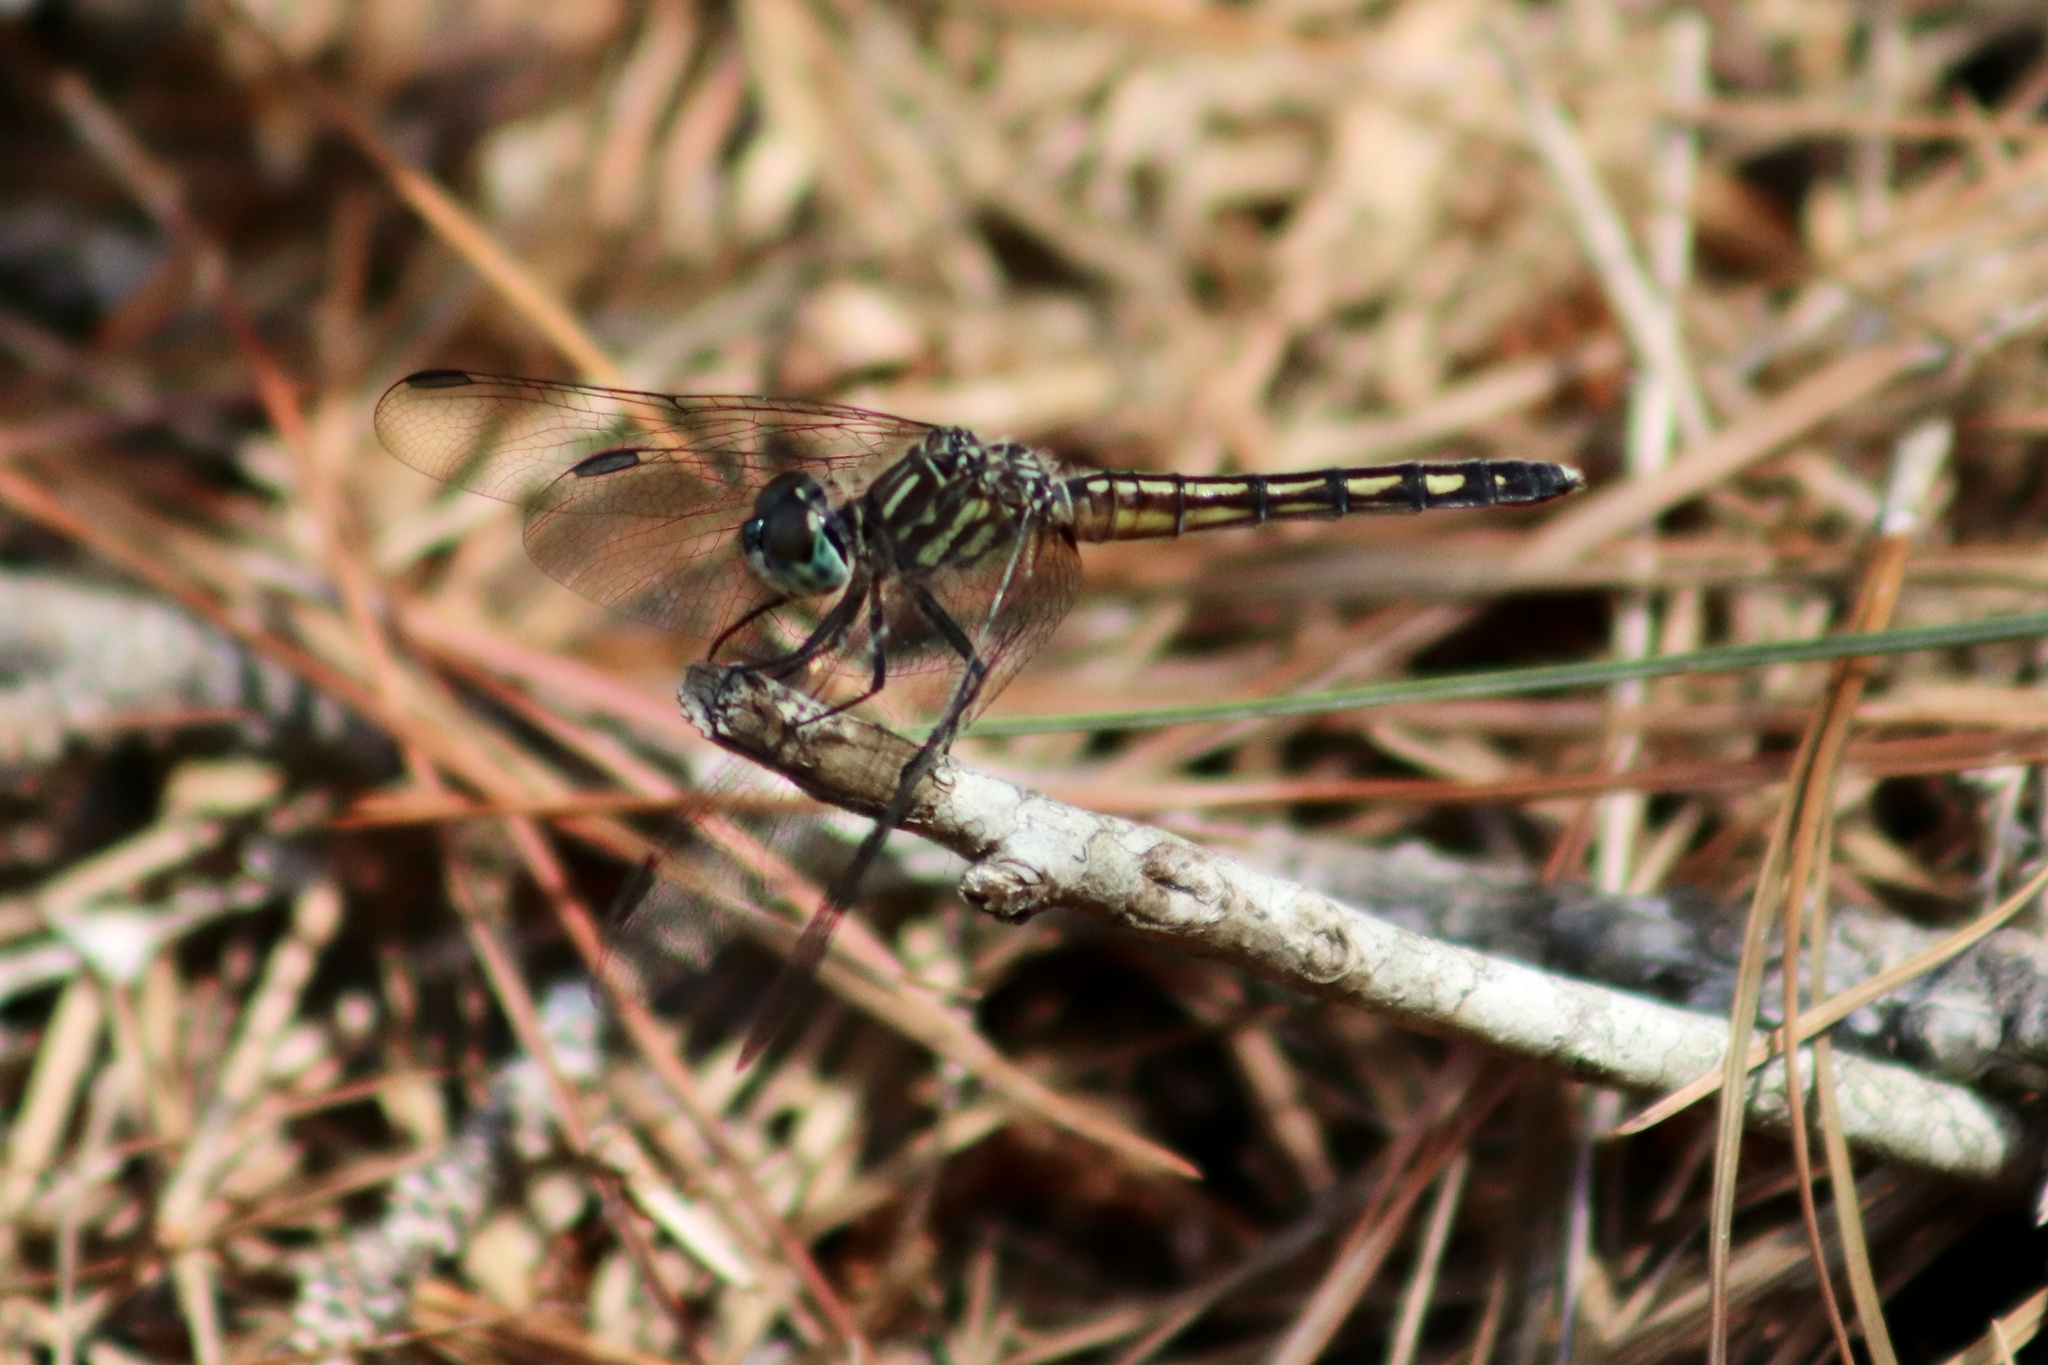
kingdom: Animalia
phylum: Arthropoda
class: Insecta
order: Odonata
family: Libellulidae
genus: Pachydiplax
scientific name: Pachydiplax longipennis
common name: Blue dasher
